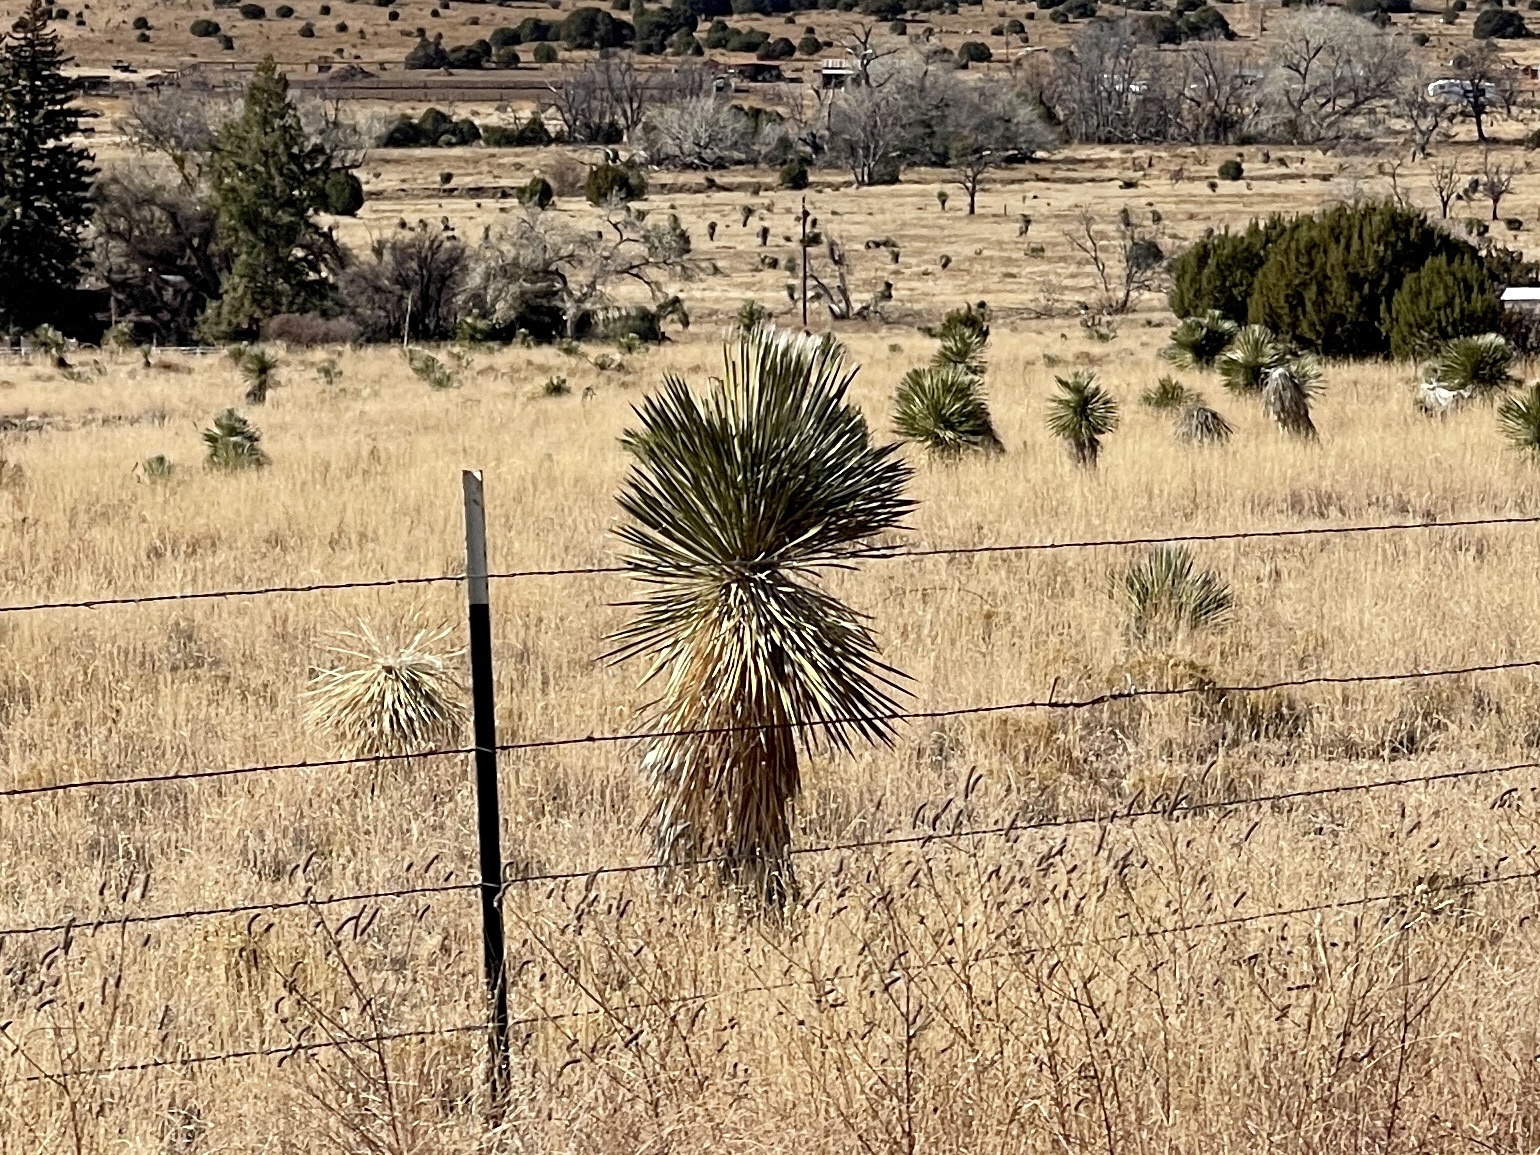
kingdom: Plantae
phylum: Tracheophyta
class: Liliopsida
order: Asparagales
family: Asparagaceae
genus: Yucca
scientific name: Yucca elata
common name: Palmella
